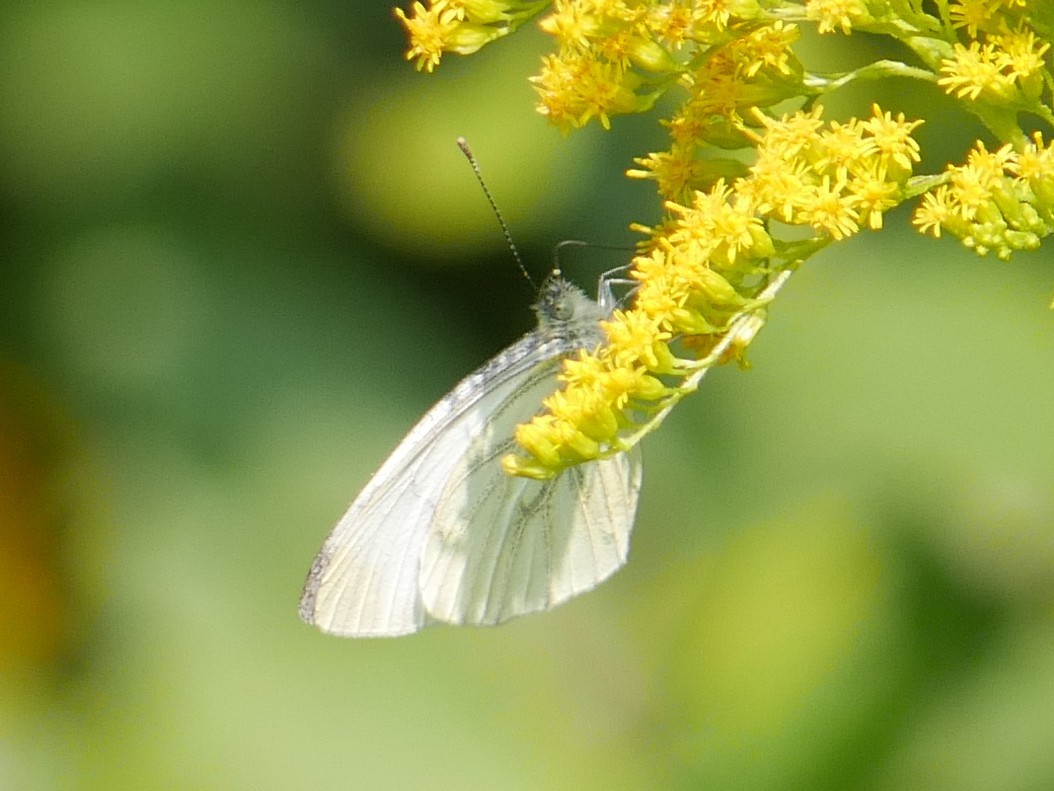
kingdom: Animalia
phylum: Arthropoda
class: Insecta
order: Lepidoptera
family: Pieridae
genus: Pieris
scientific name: Pieris napi
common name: Green-veined white
